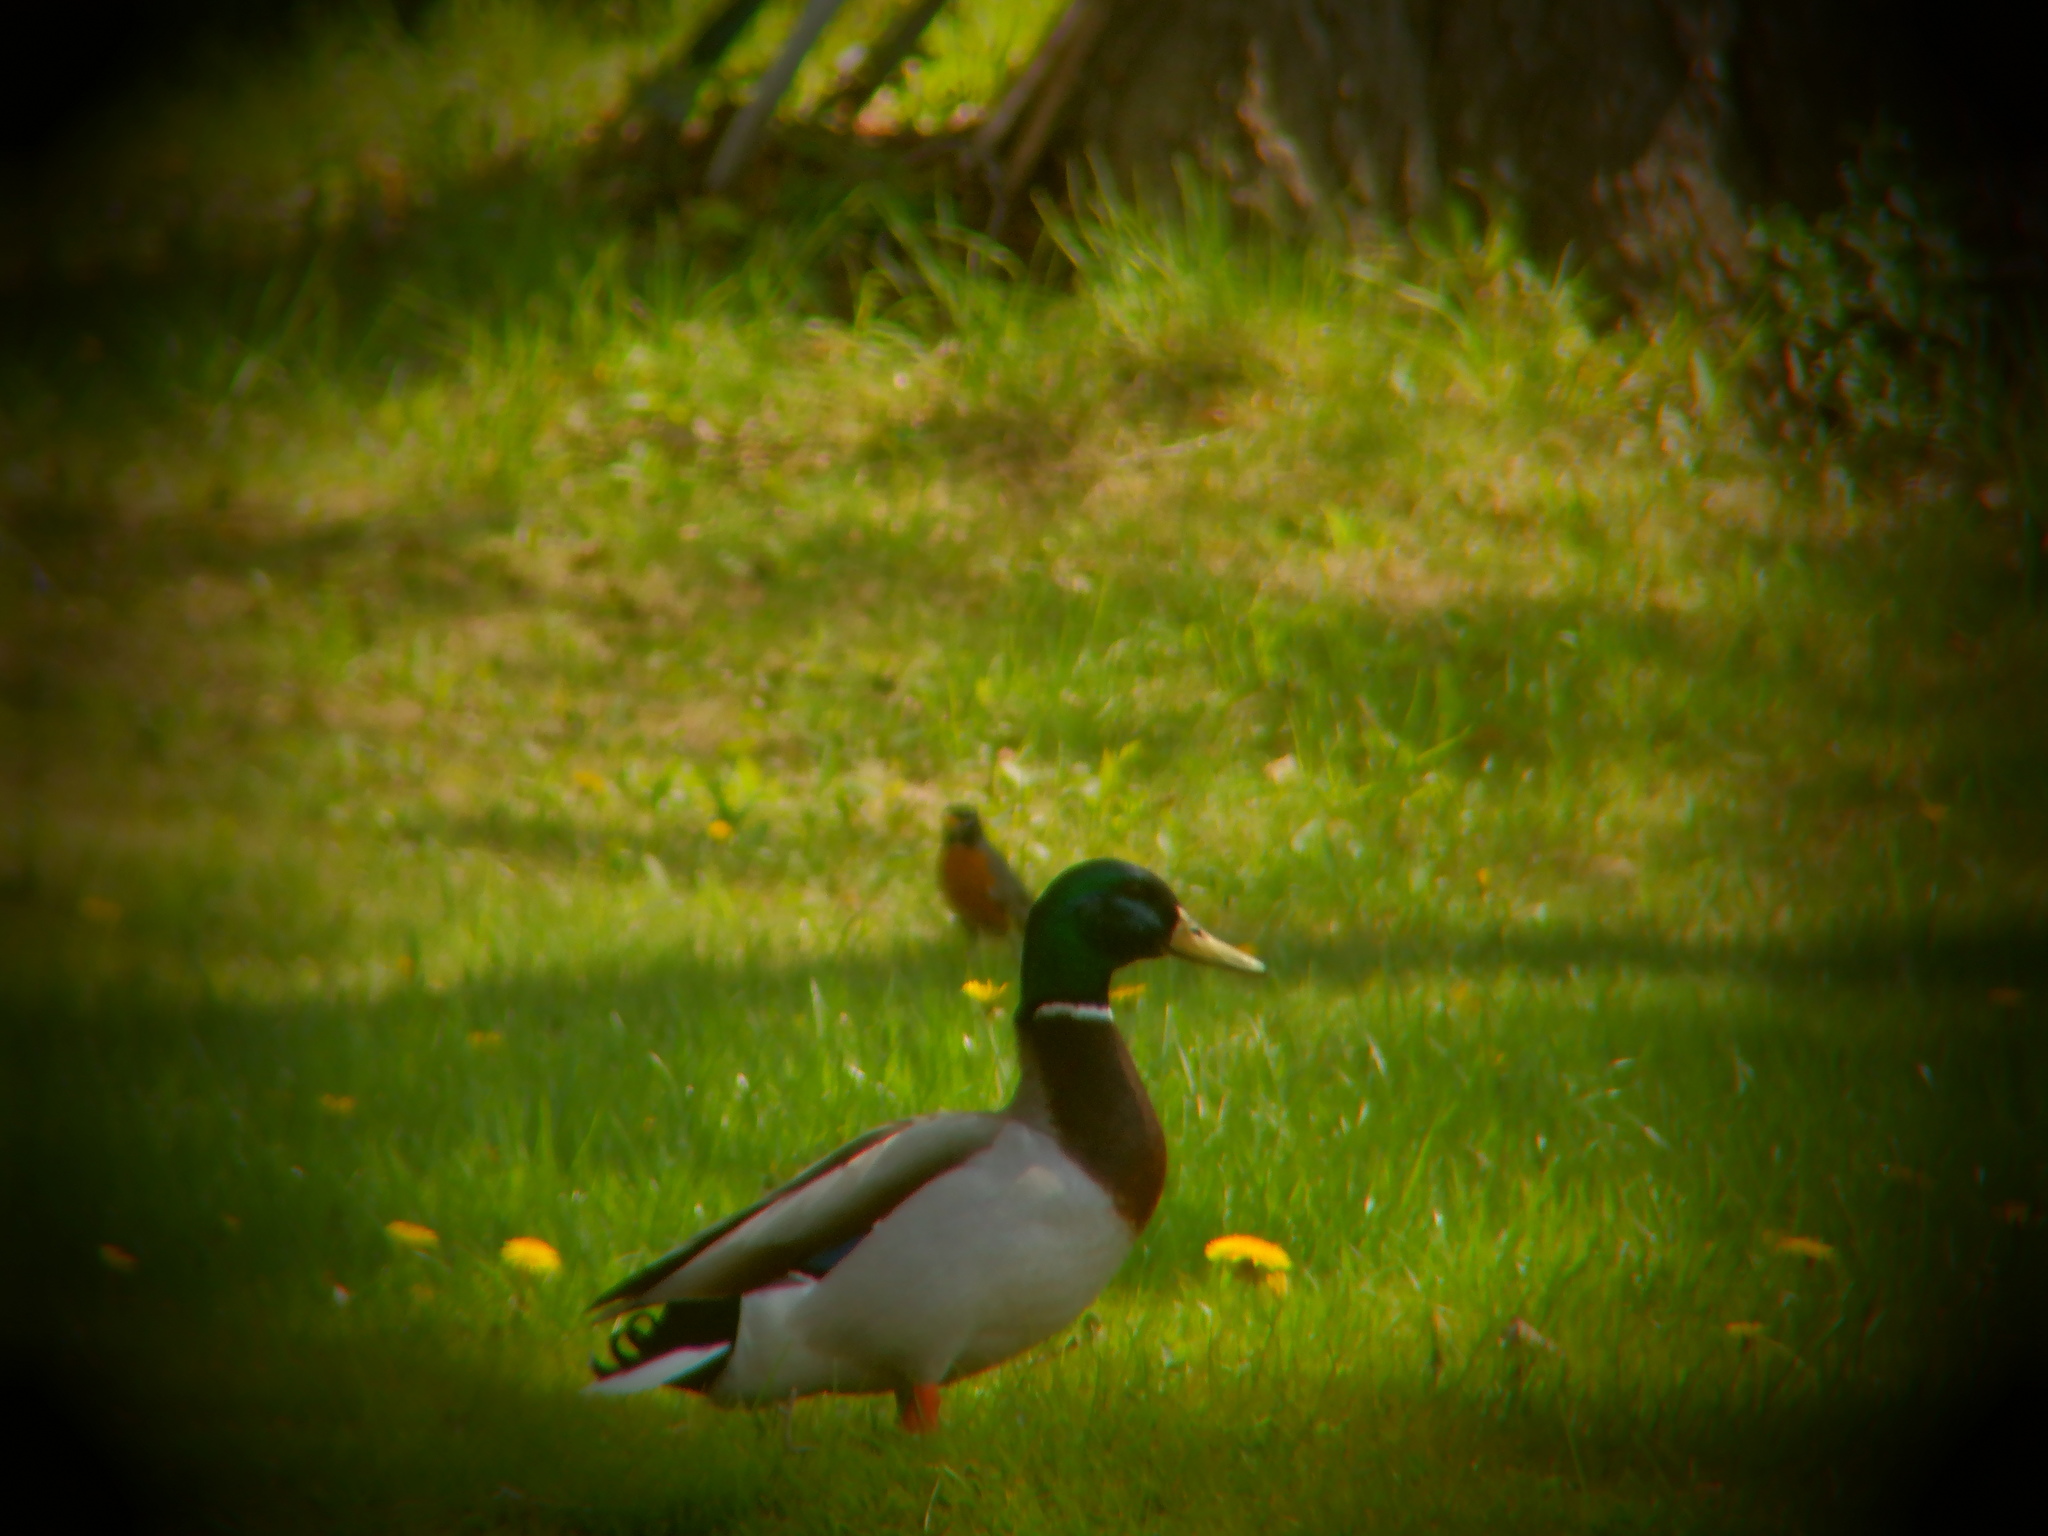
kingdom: Animalia
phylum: Chordata
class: Aves
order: Anseriformes
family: Anatidae
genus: Anas
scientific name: Anas platyrhynchos
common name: Mallard
